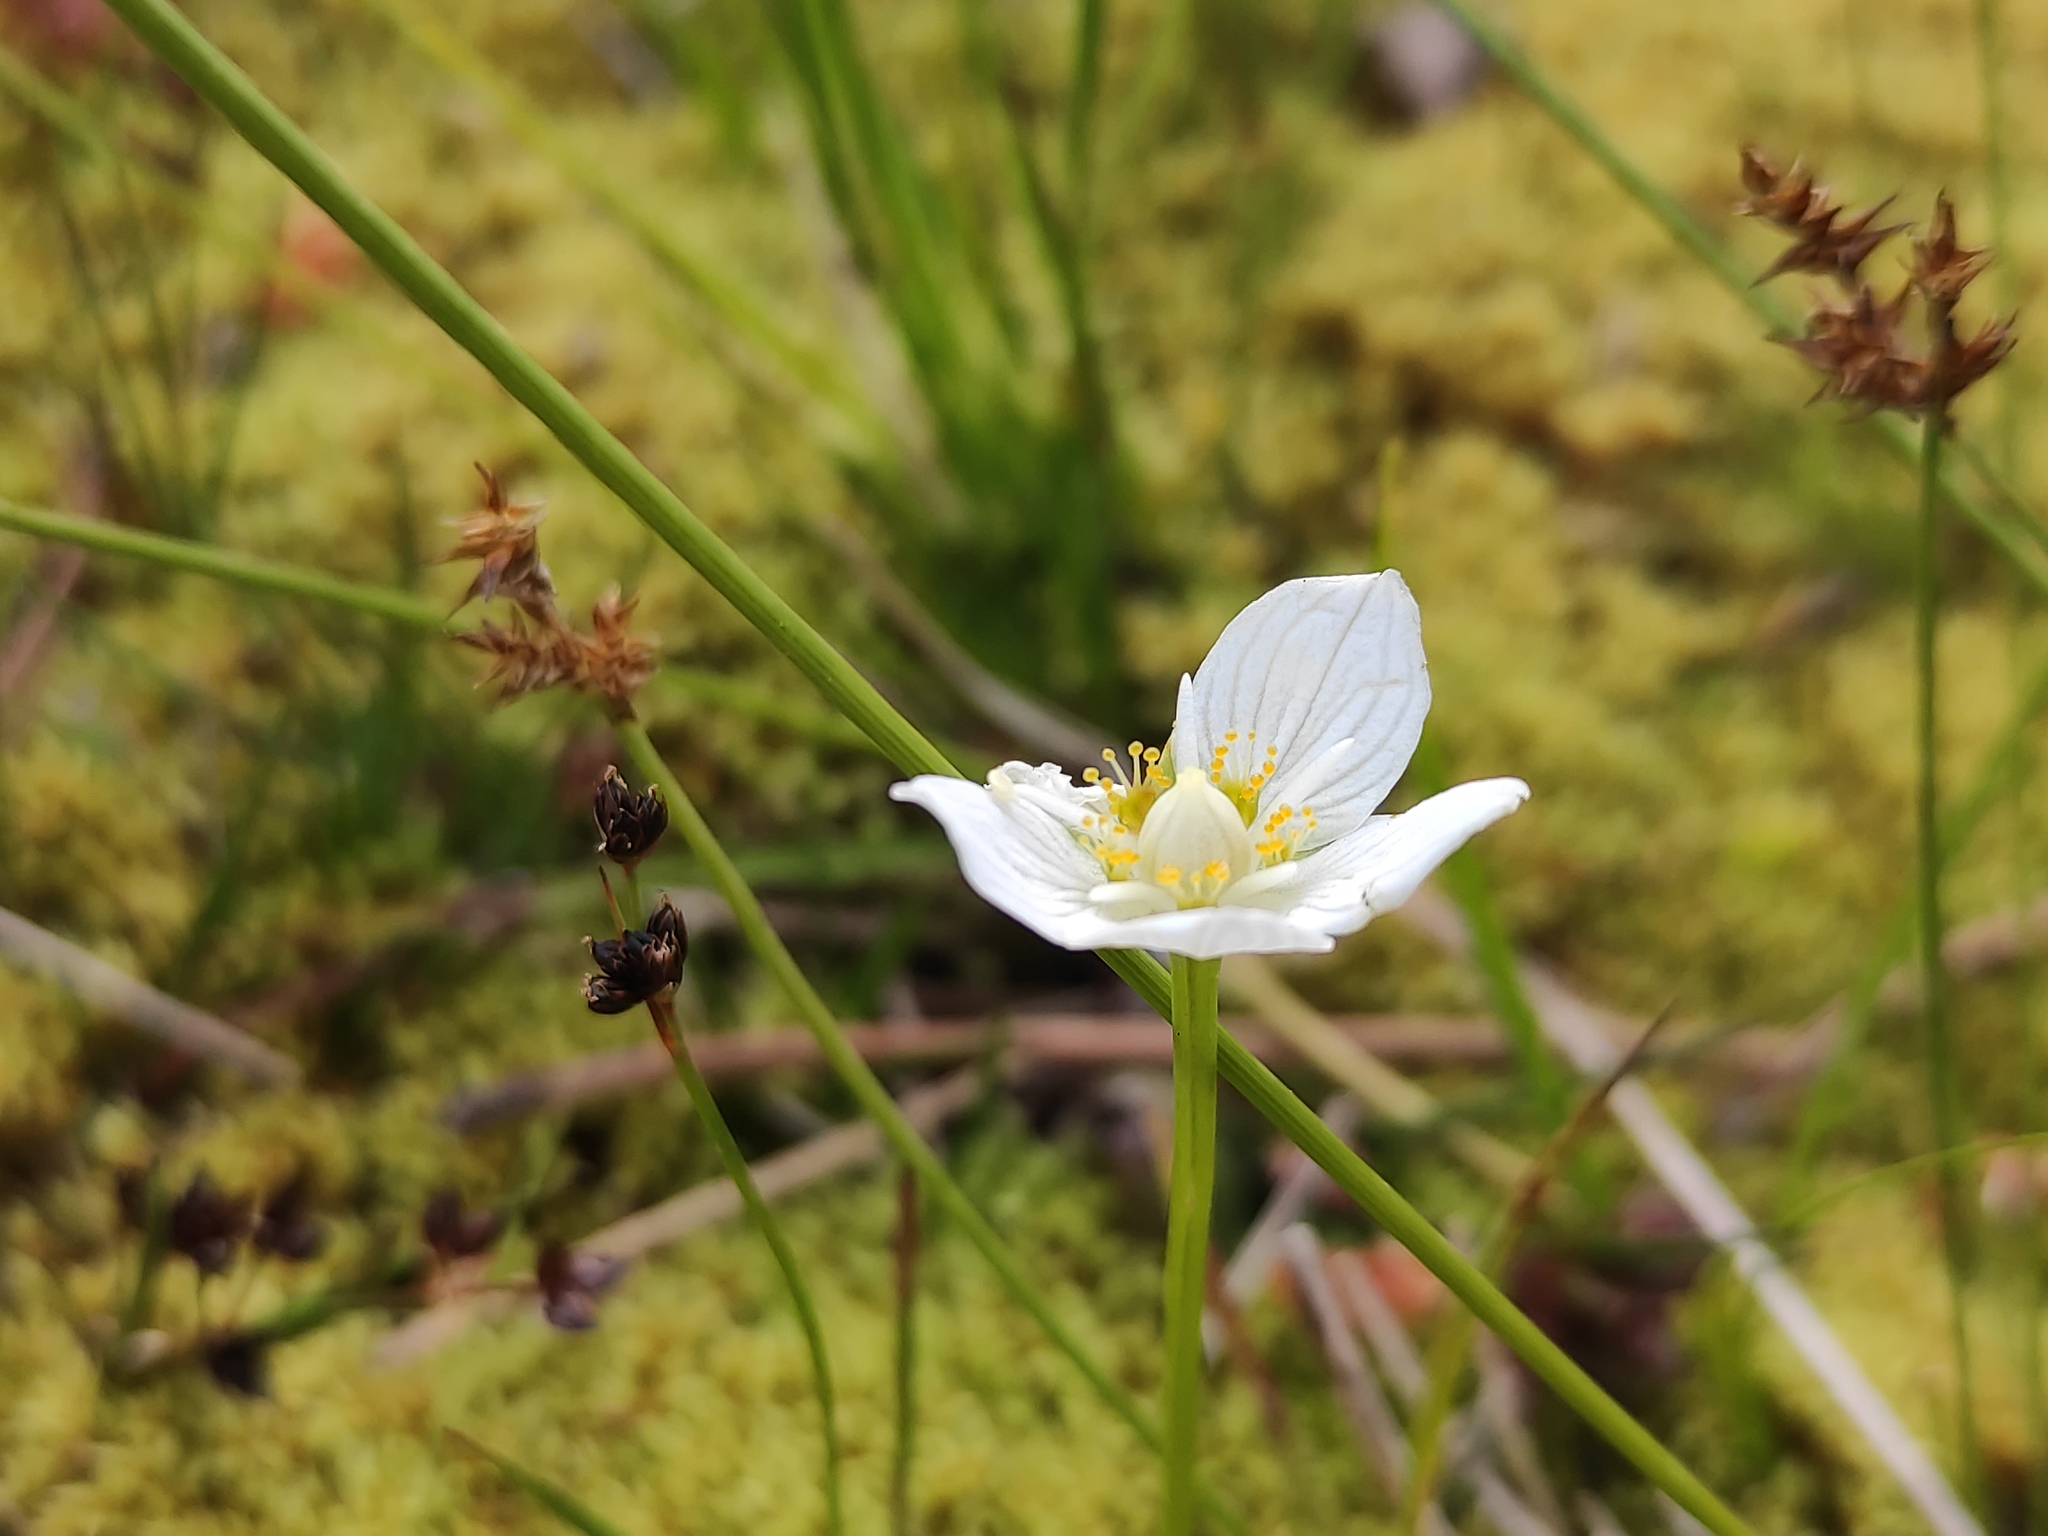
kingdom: Plantae
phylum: Tracheophyta
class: Magnoliopsida
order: Celastrales
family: Parnassiaceae
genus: Parnassia
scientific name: Parnassia palustris
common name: Grass-of-parnassus
